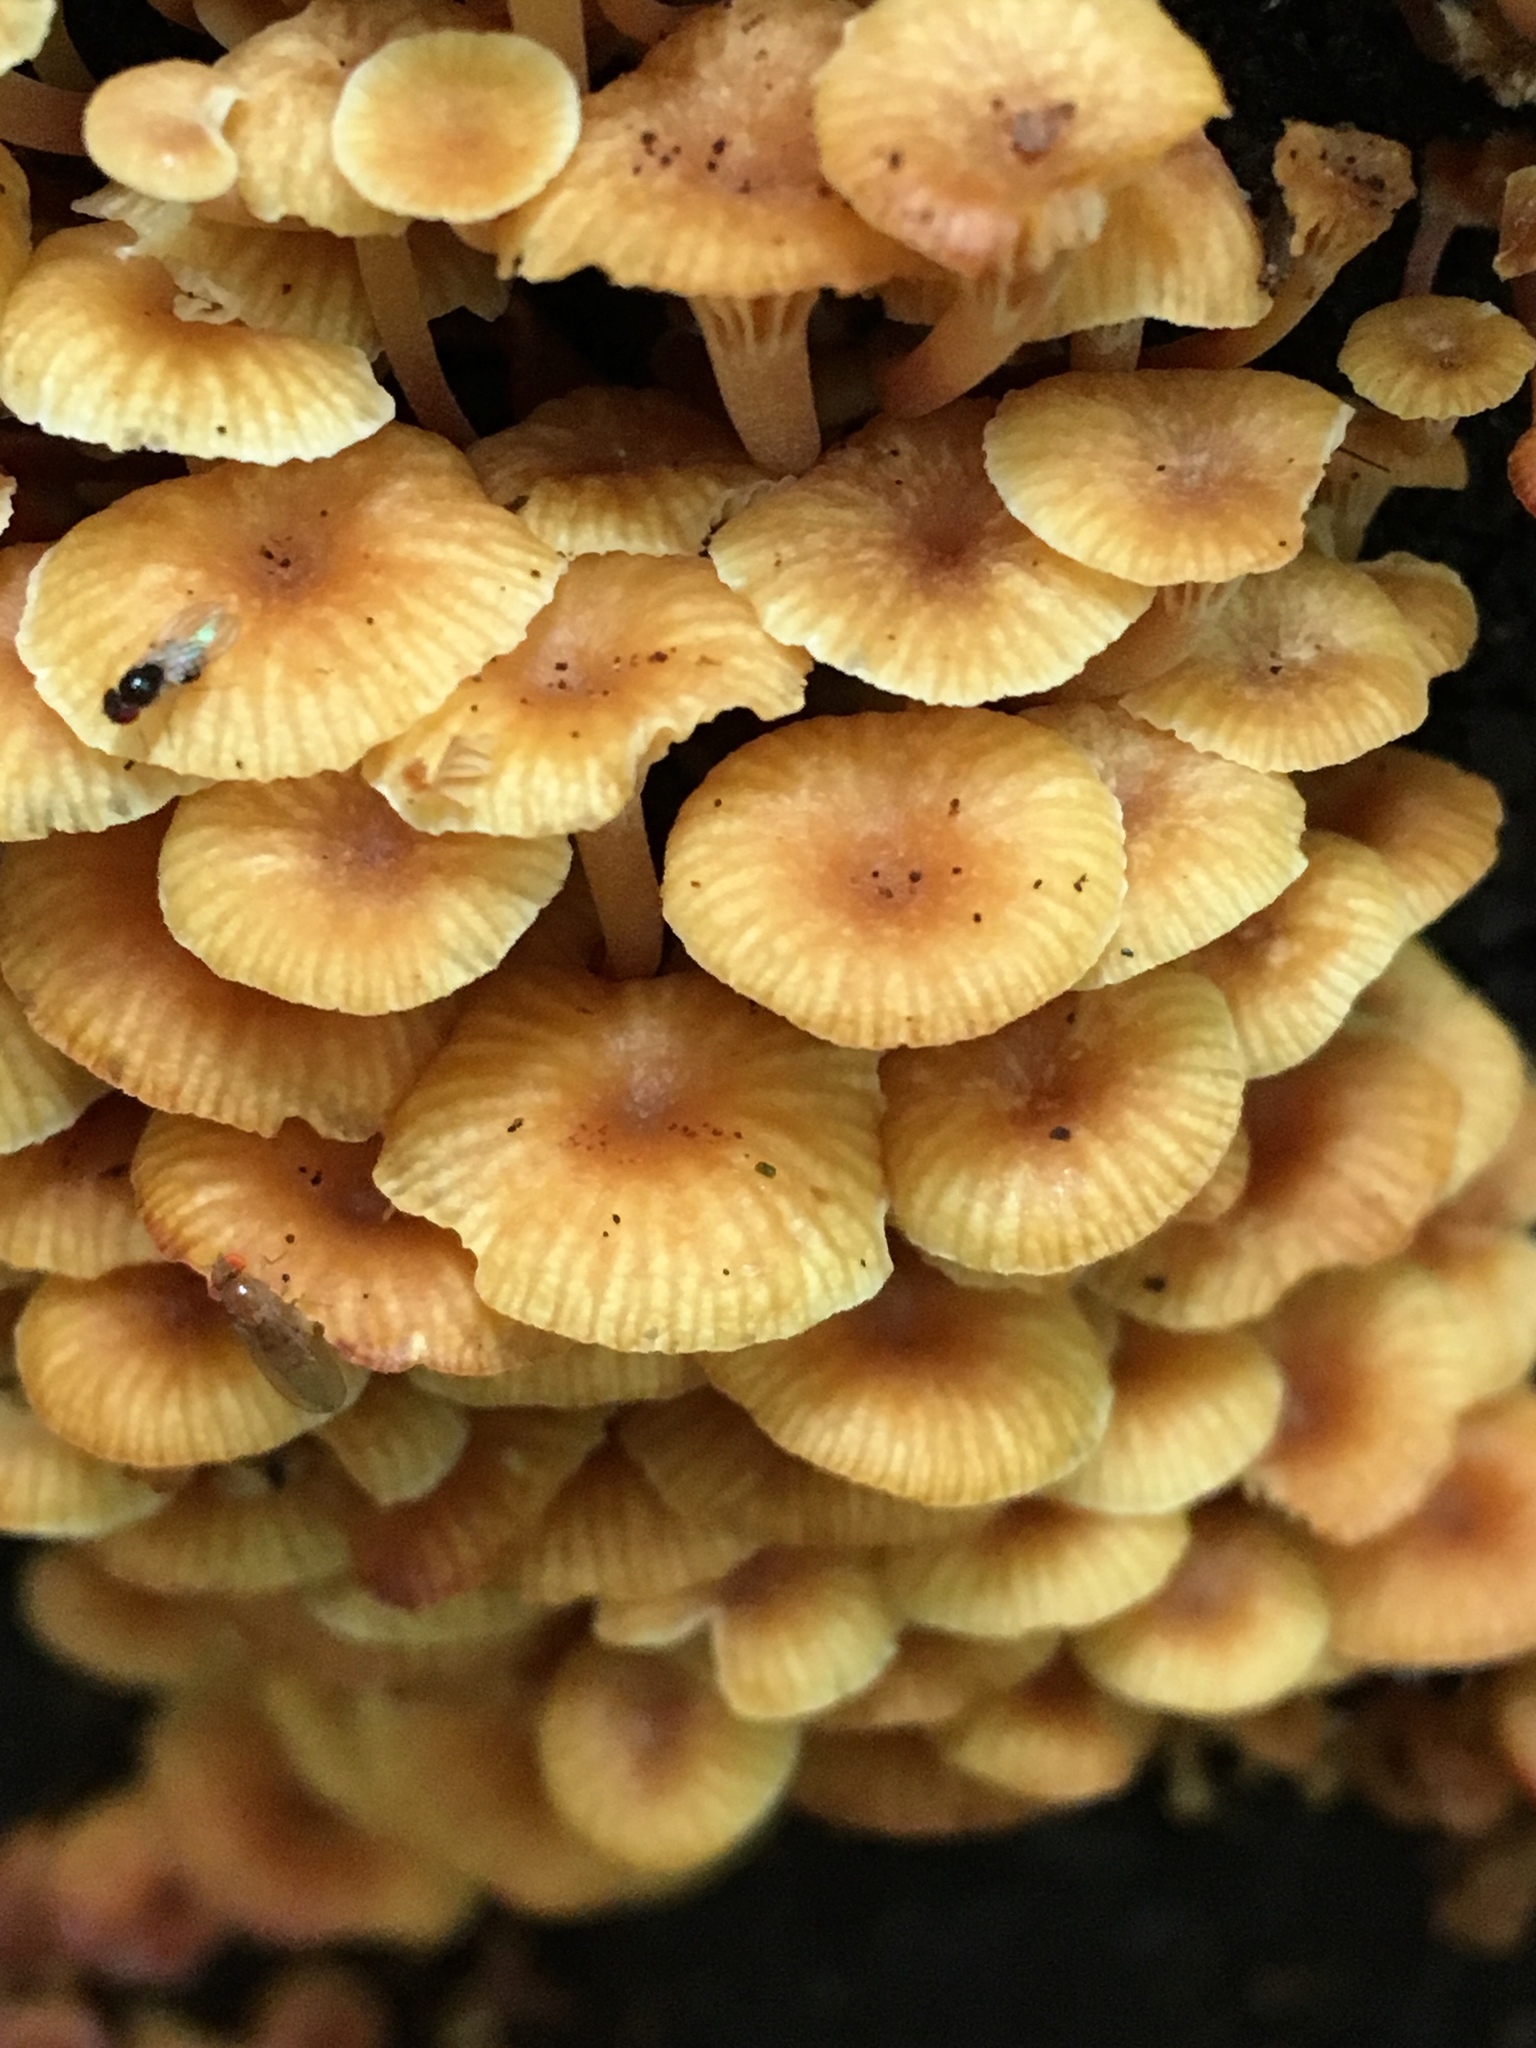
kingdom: Fungi
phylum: Basidiomycota
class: Agaricomycetes
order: Agaricales
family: Mycenaceae
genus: Xeromphalina
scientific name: Xeromphalina kauffmanii
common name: Cross-veined troop mushroom
